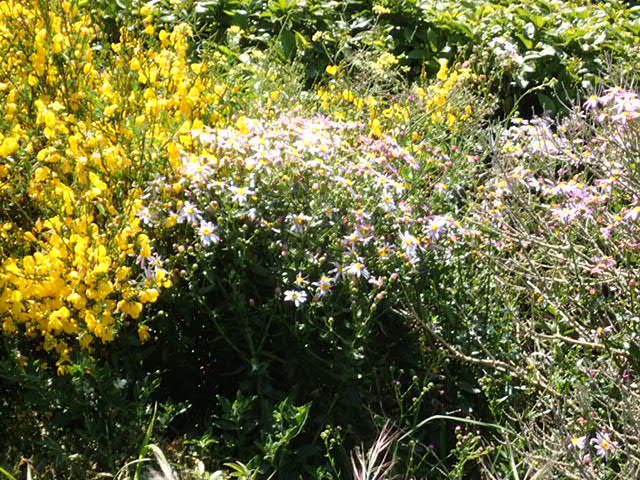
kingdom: Plantae
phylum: Tracheophyta
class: Magnoliopsida
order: Asterales
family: Asteraceae
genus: Senecio
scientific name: Senecio glastifolius
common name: Woad-leaved ragwort
